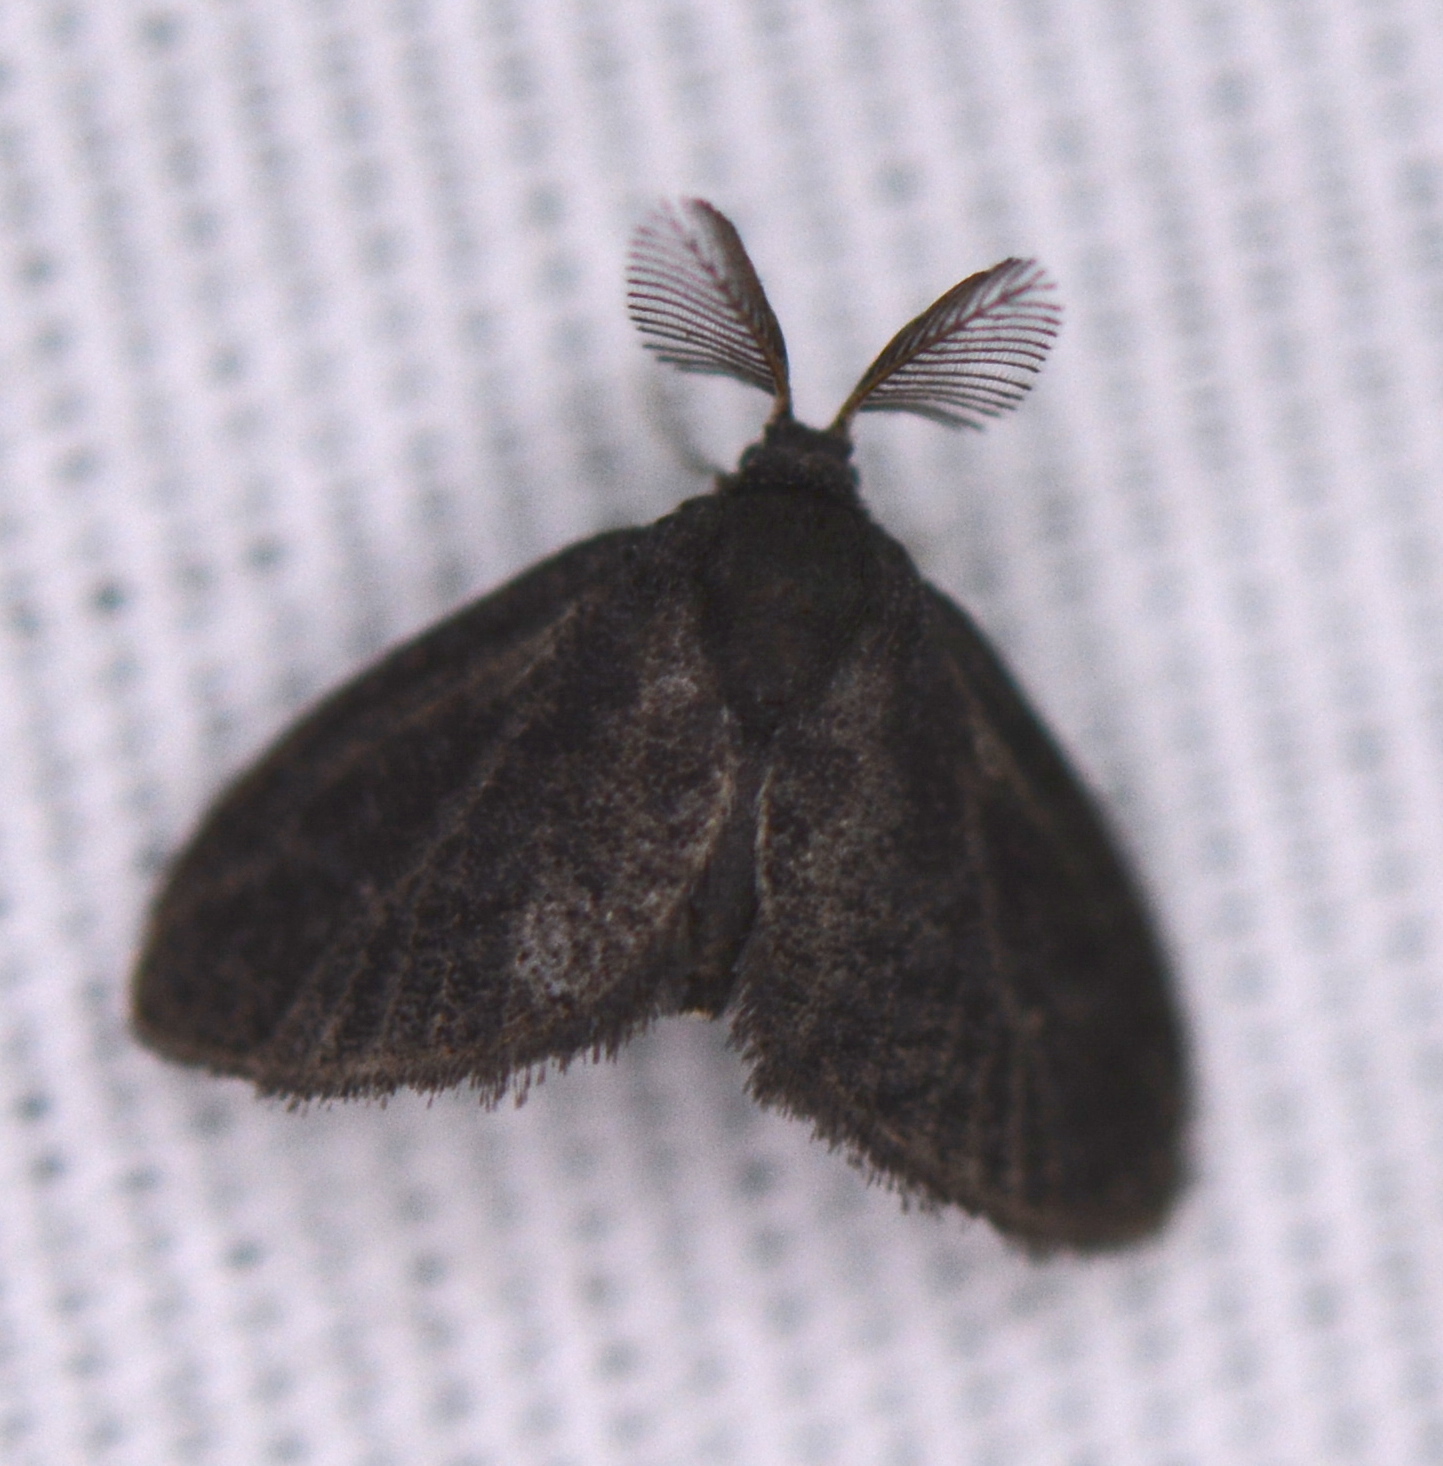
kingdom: Animalia
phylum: Arthropoda
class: Insecta
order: Lepidoptera
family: Epipyropidae
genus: Fulgoraecia
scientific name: Fulgoraecia exigua
